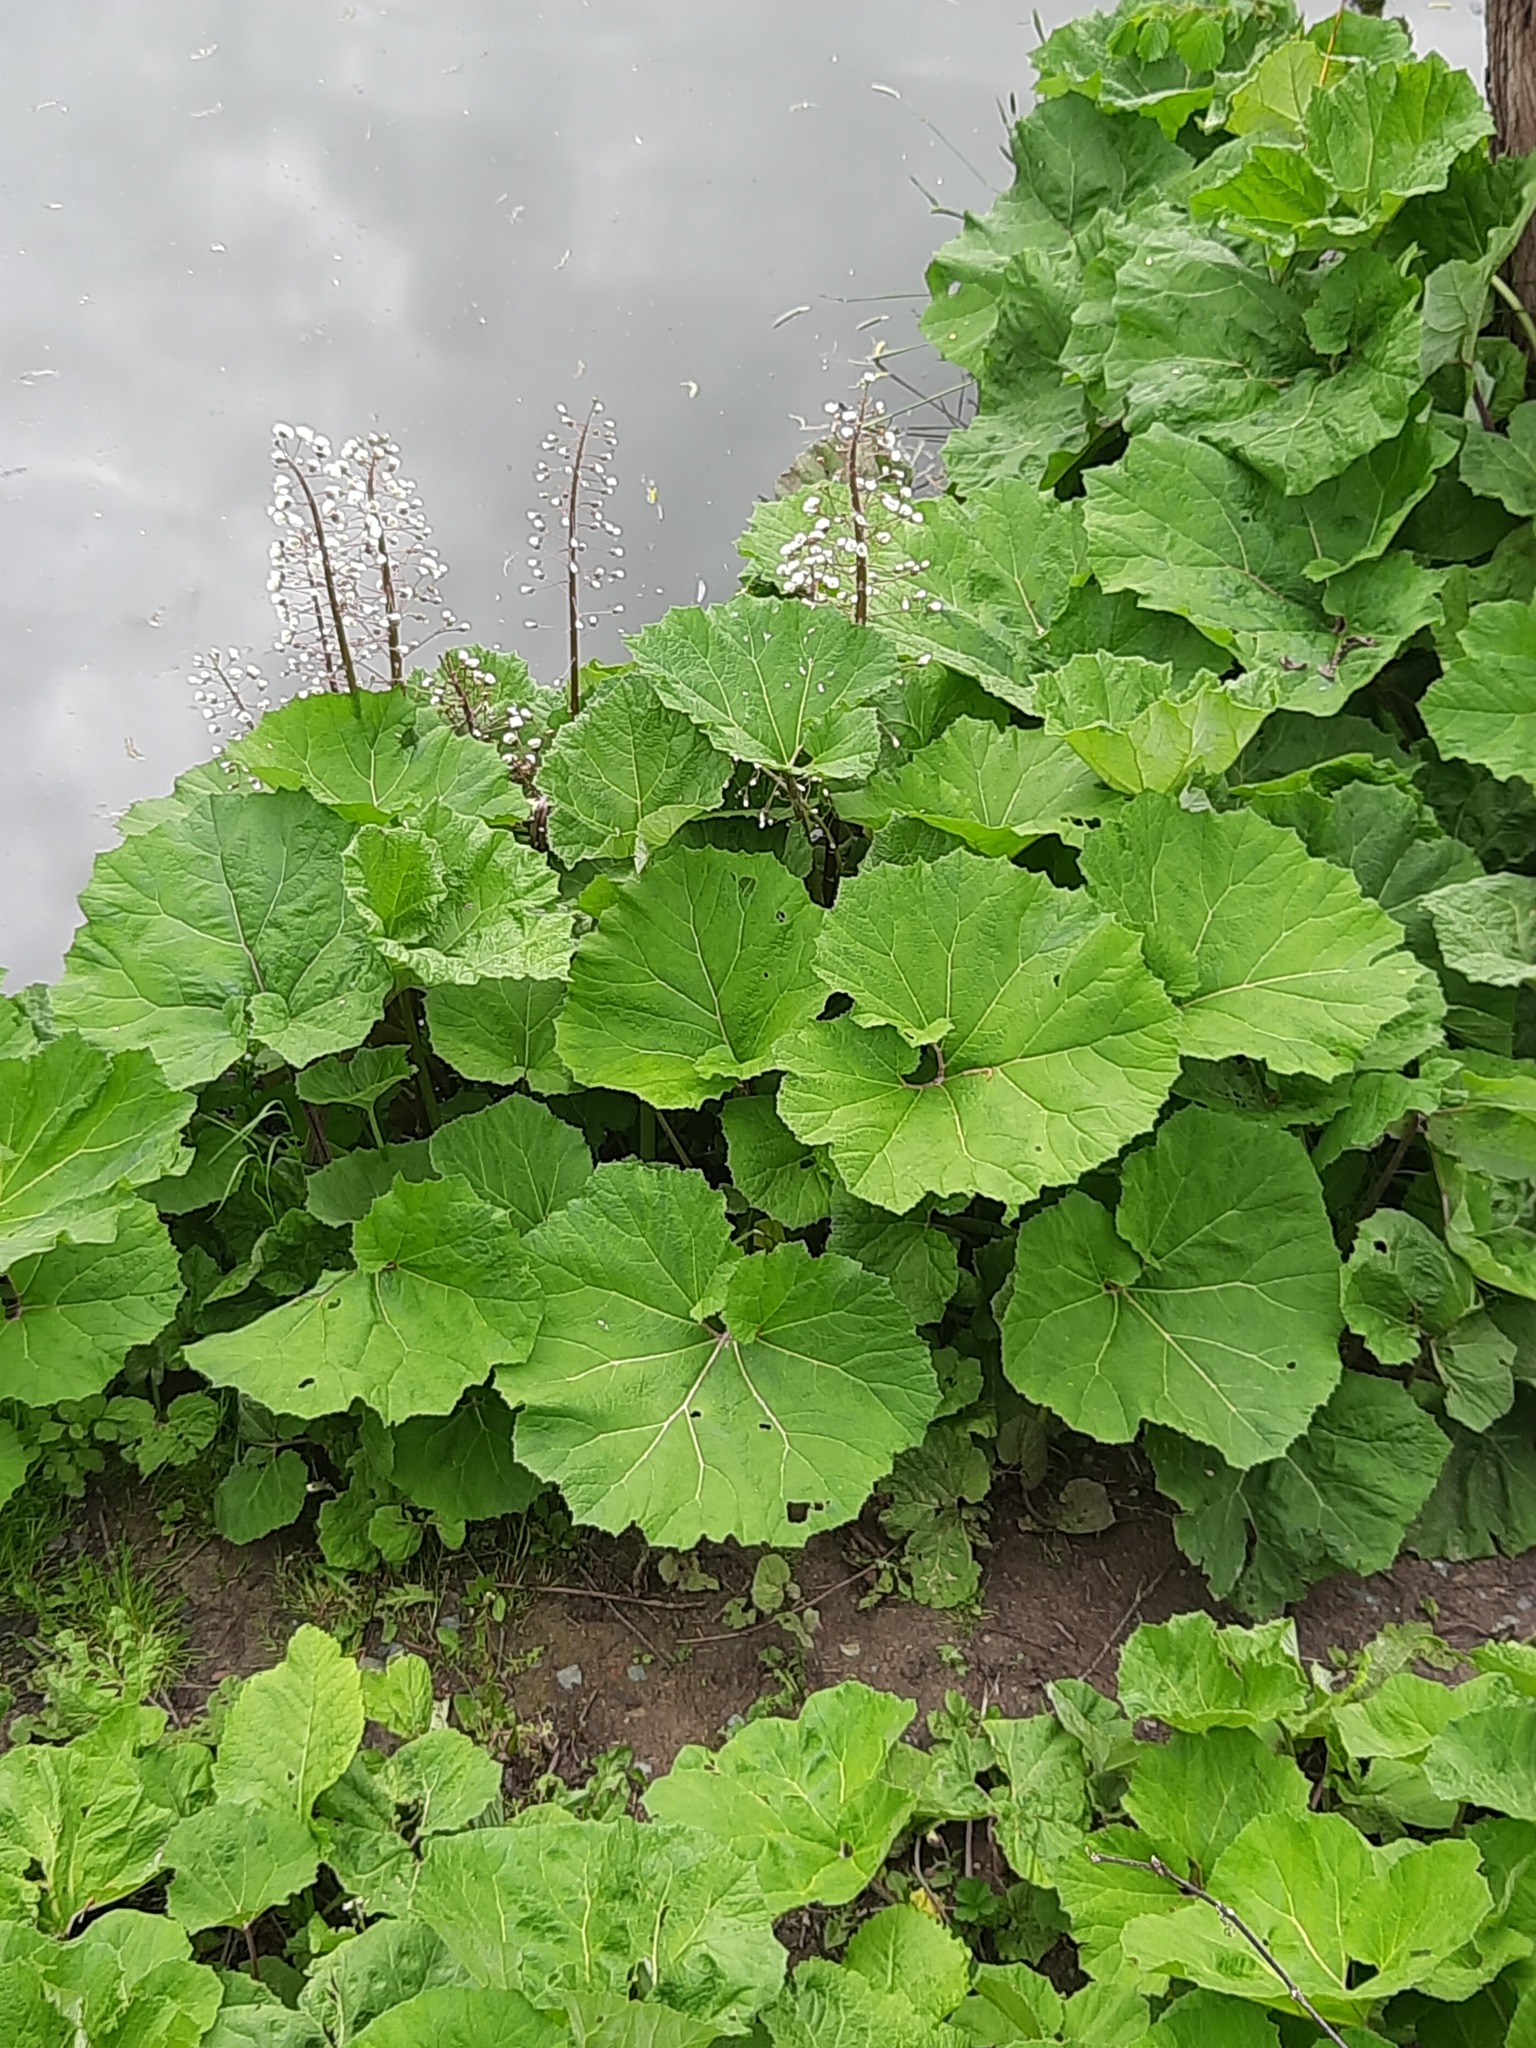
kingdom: Plantae
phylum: Tracheophyta
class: Magnoliopsida
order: Asterales
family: Asteraceae
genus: Petasites
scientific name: Petasites hybridus
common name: Butterbur
